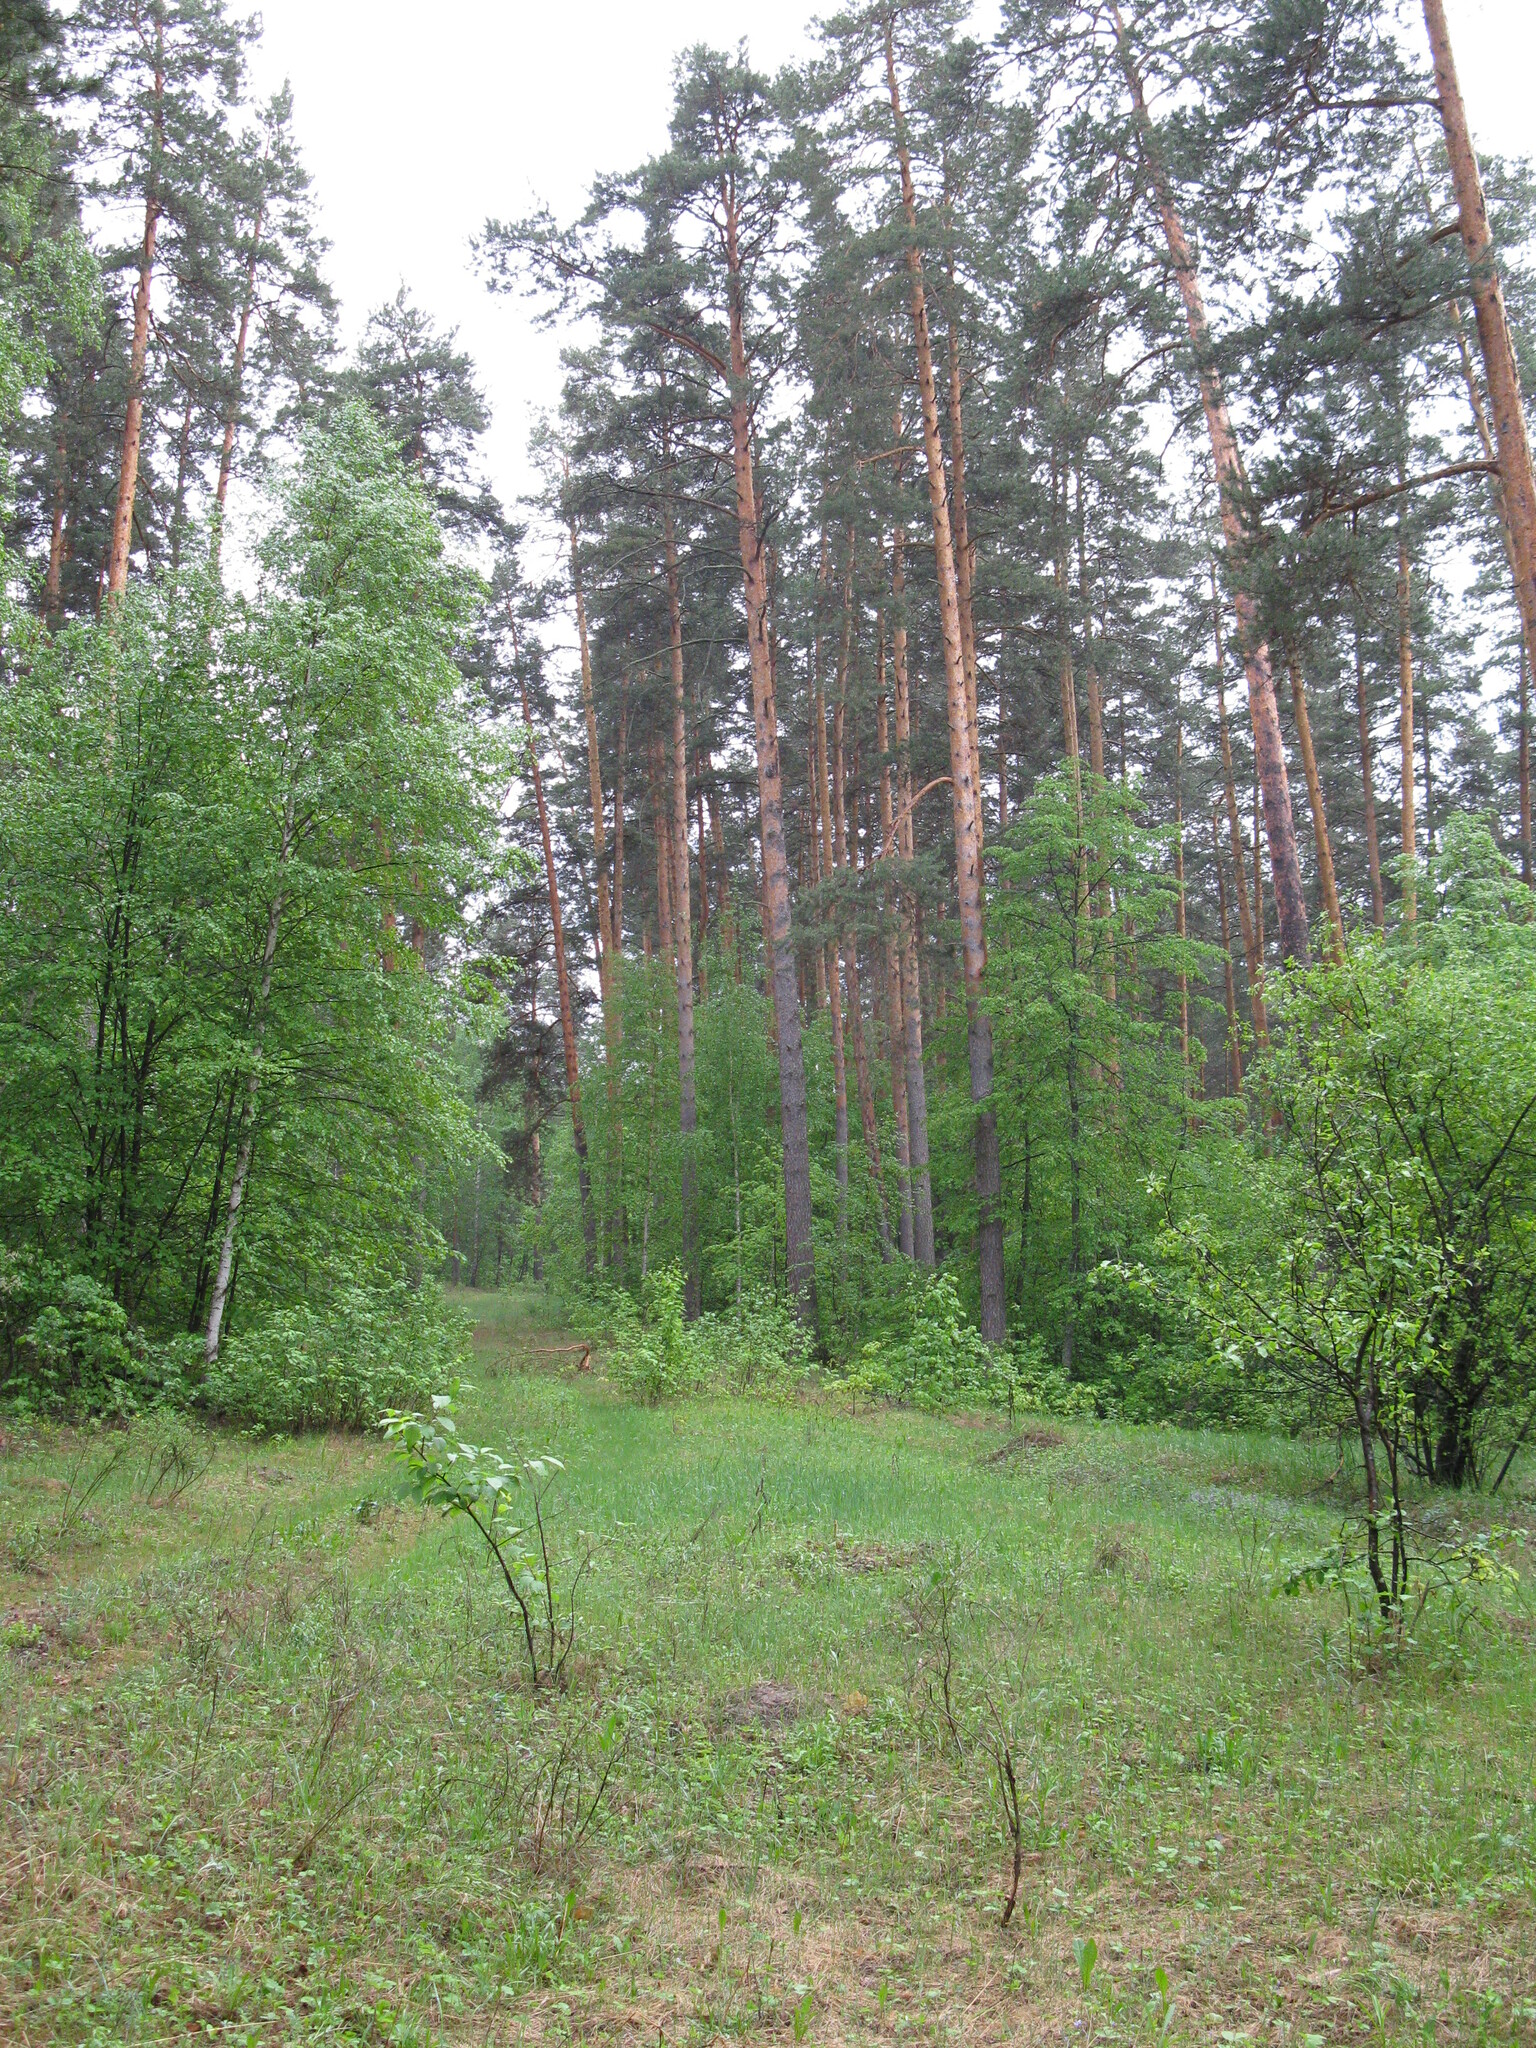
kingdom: Plantae
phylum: Tracheophyta
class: Pinopsida
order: Pinales
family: Pinaceae
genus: Pinus
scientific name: Pinus sylvestris
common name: Scots pine
